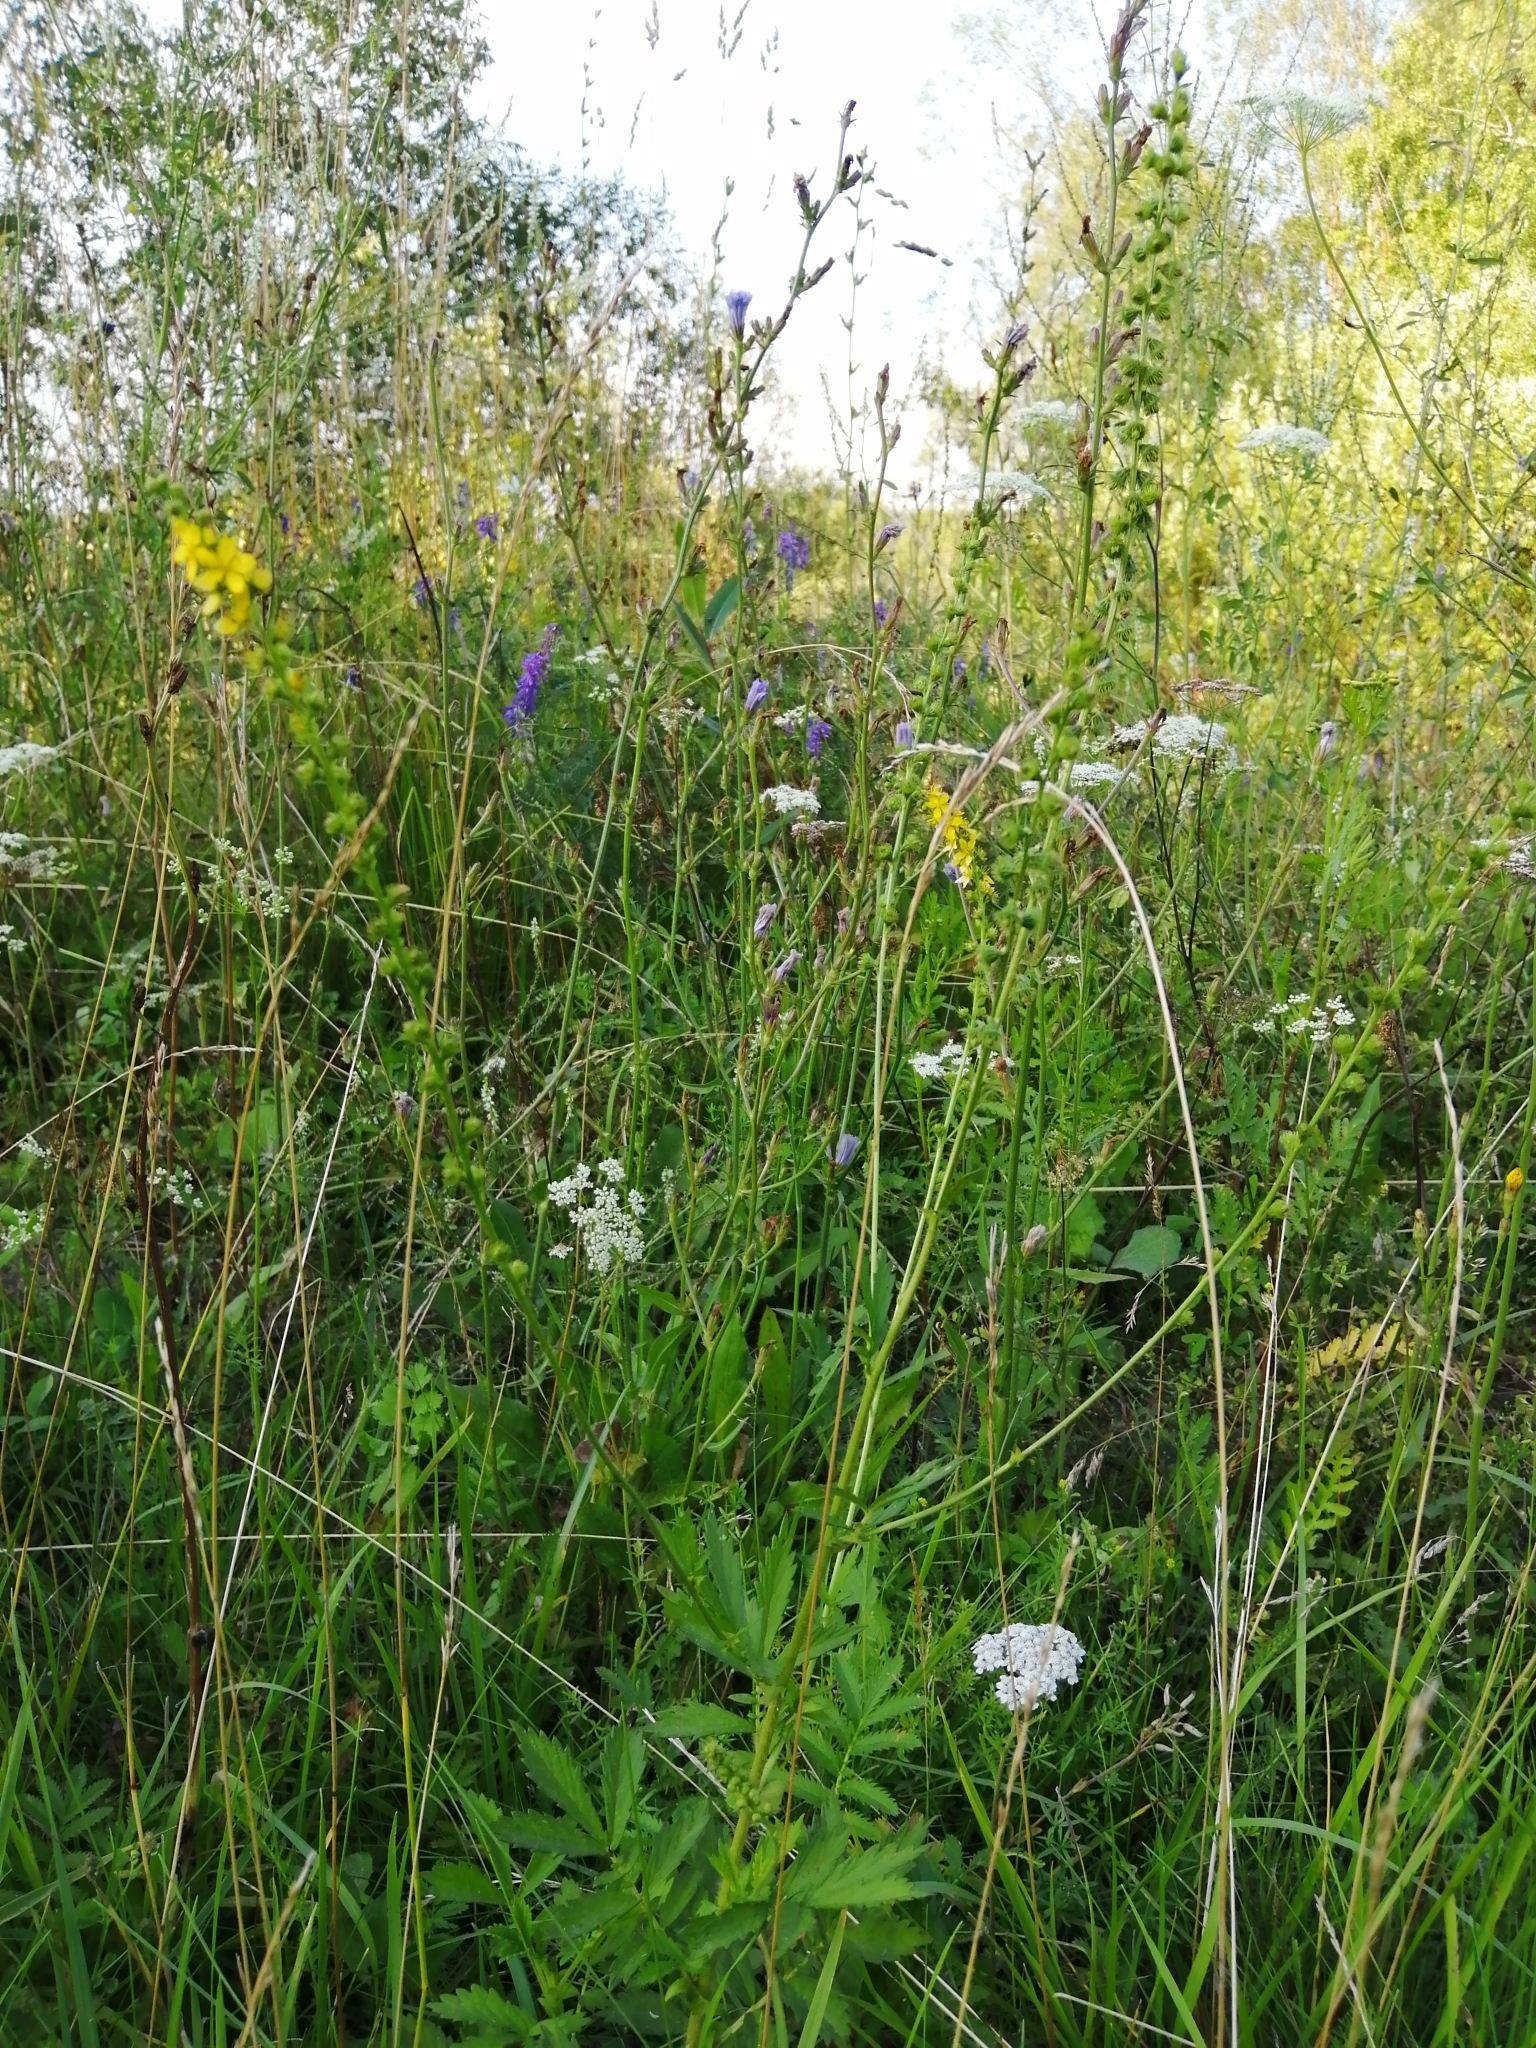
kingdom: Plantae
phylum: Tracheophyta
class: Magnoliopsida
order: Rosales
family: Rosaceae
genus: Agrimonia
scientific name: Agrimonia pilosa
